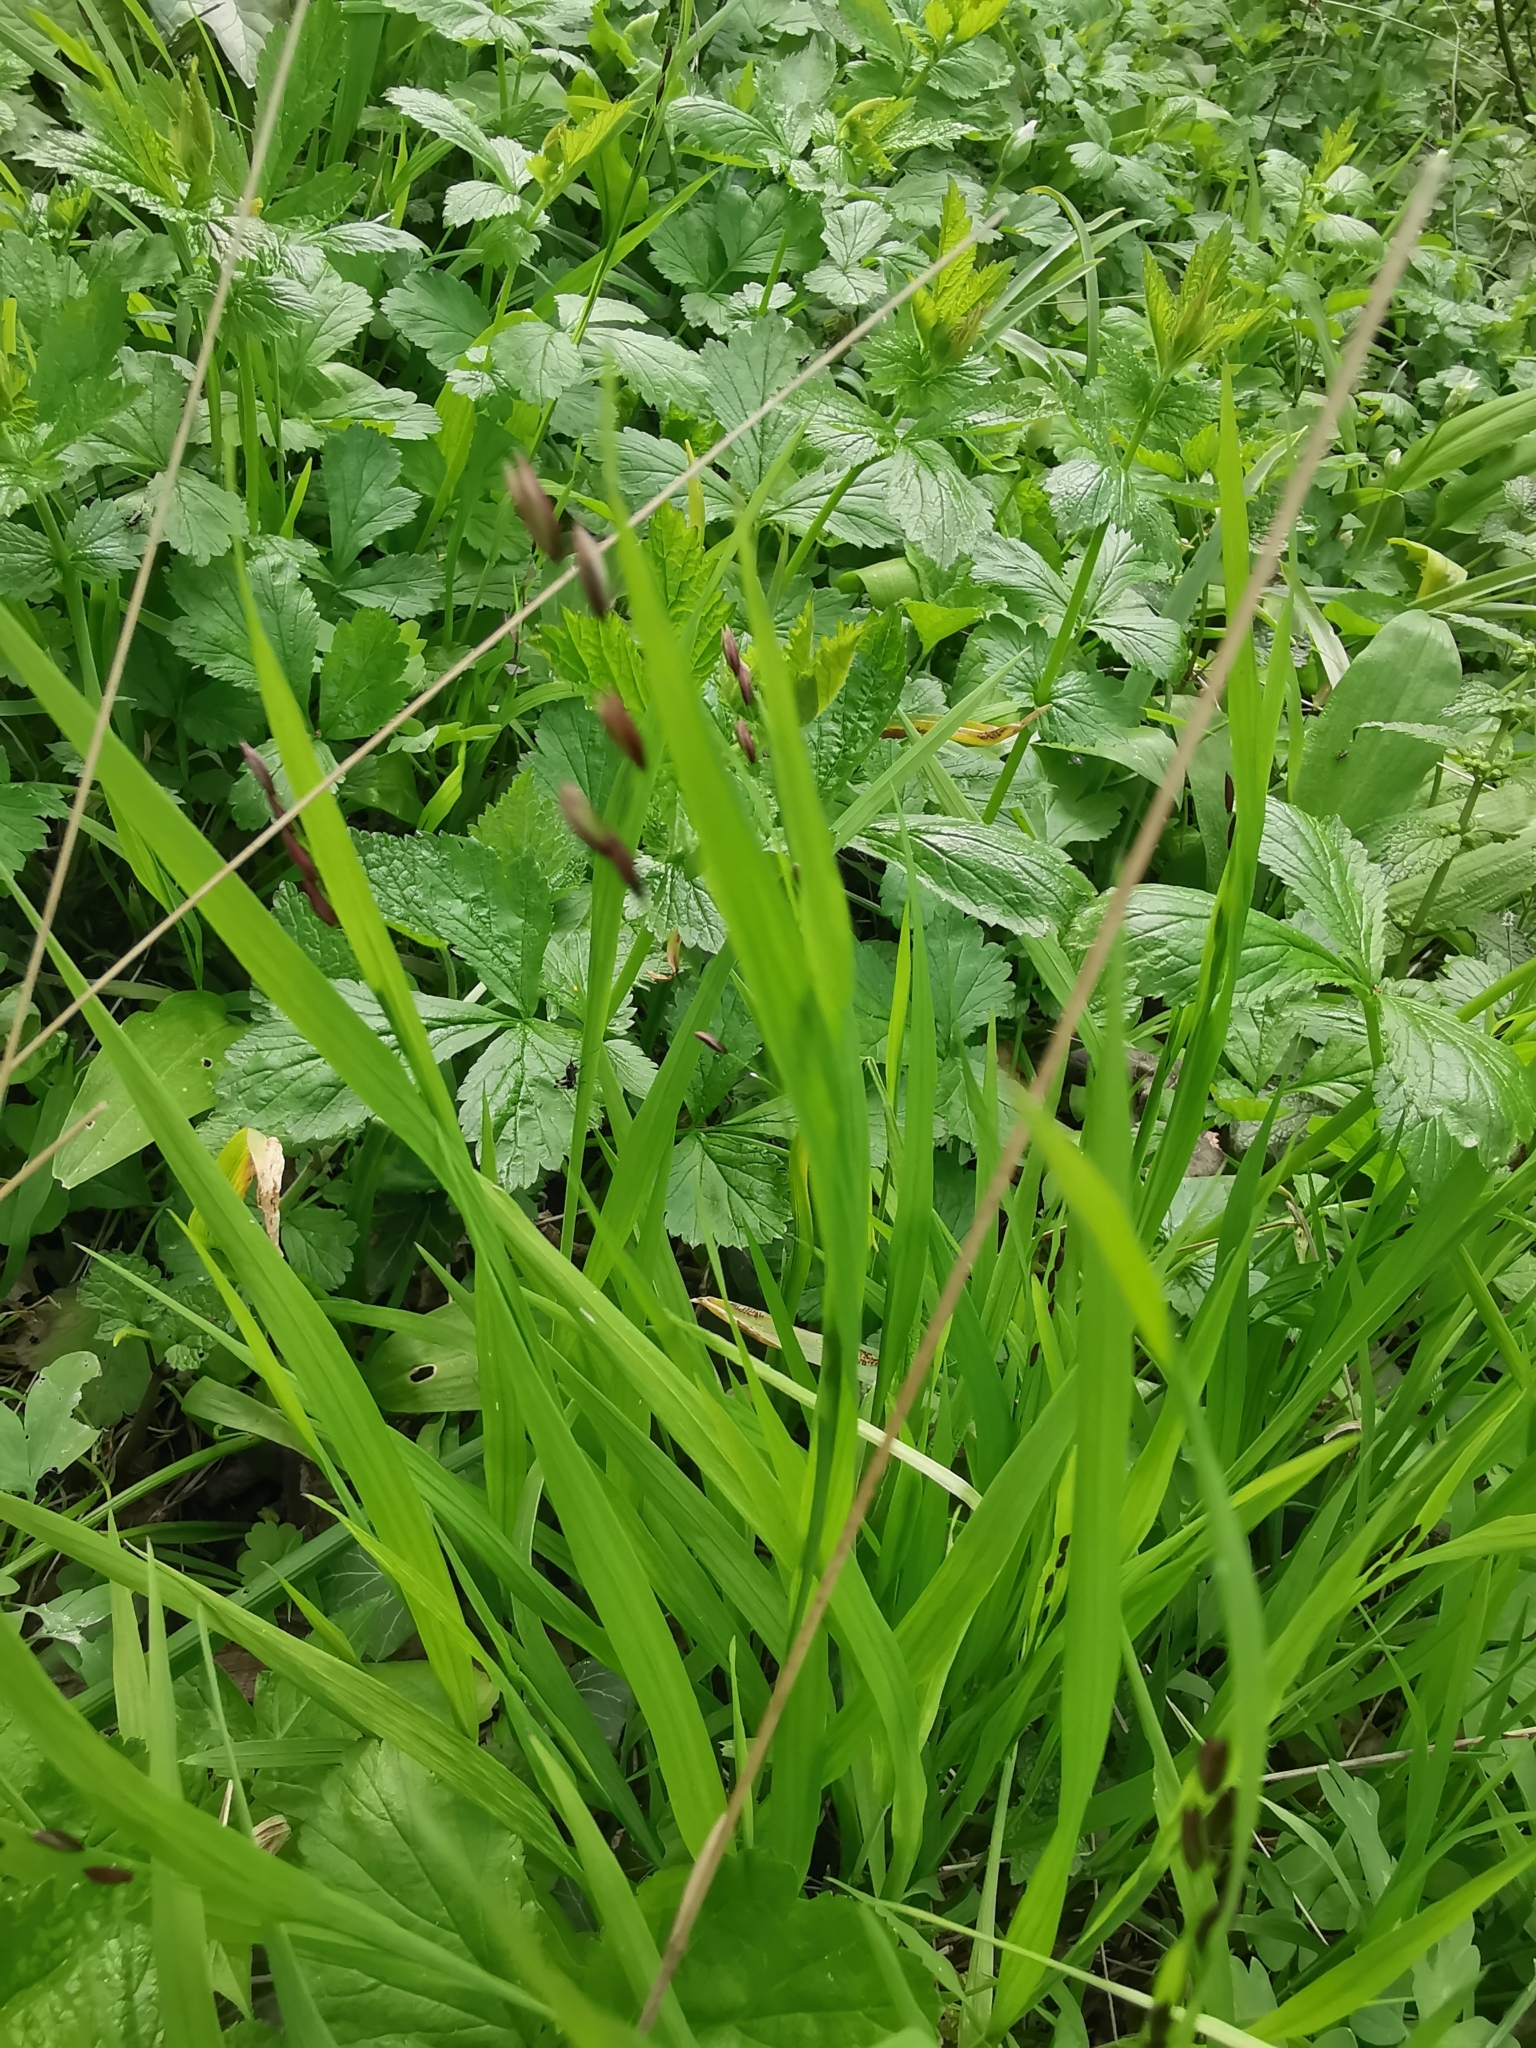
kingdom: Plantae
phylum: Tracheophyta
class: Liliopsida
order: Poales
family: Poaceae
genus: Melica
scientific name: Melica uniflora
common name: Wood melick
